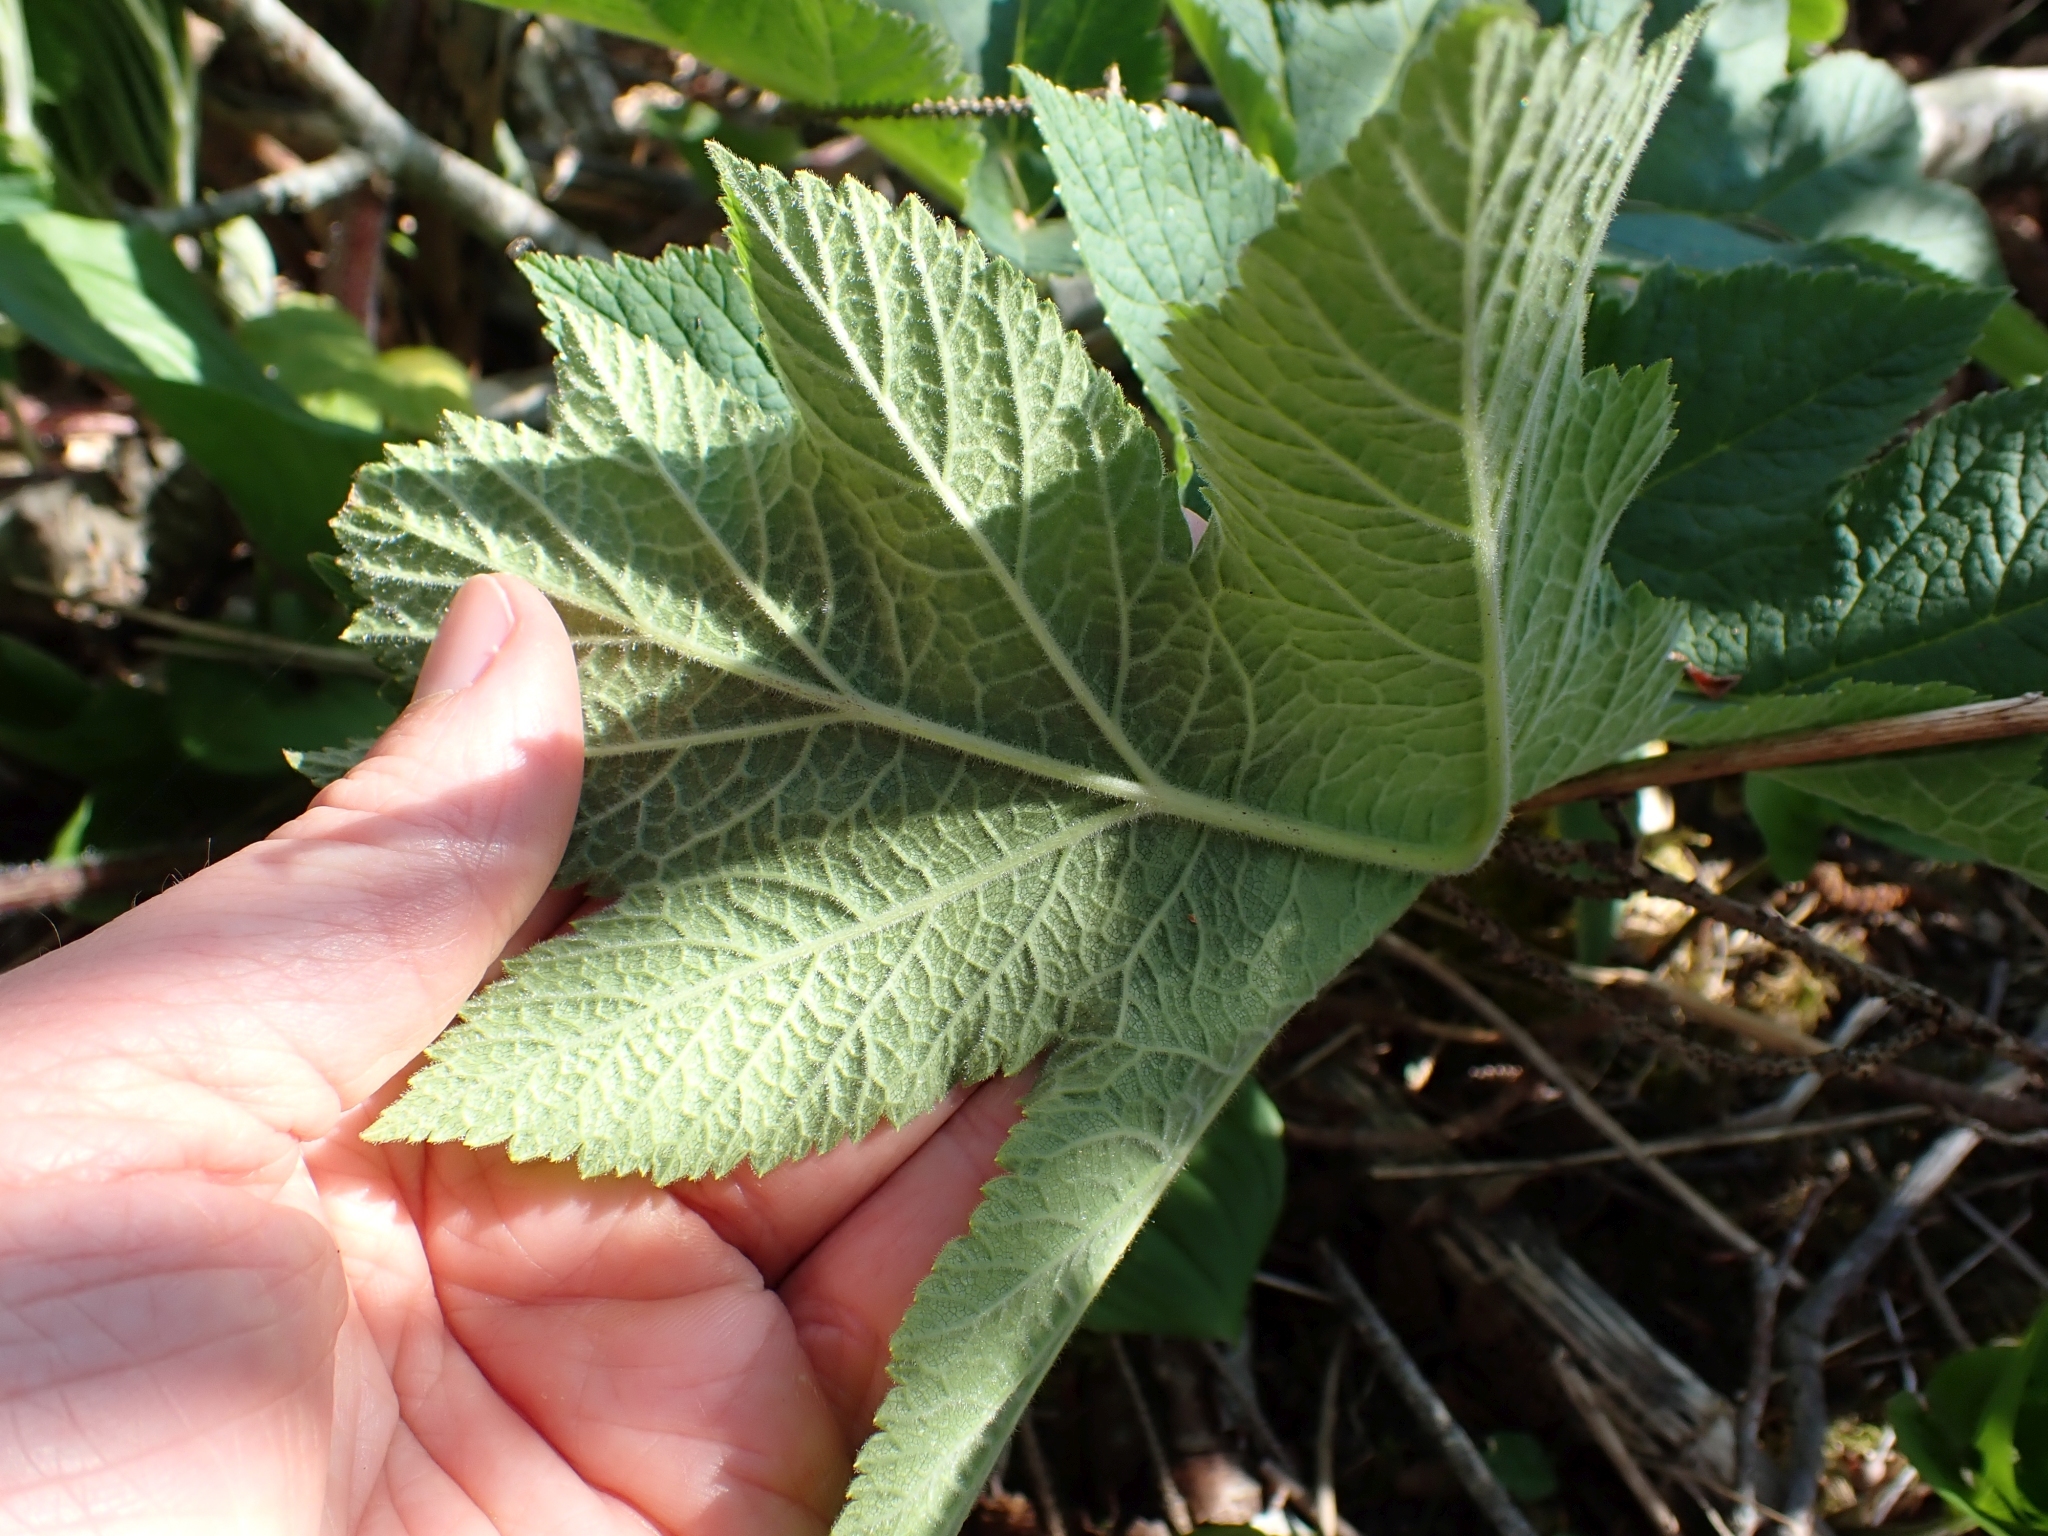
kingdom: Plantae
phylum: Tracheophyta
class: Magnoliopsida
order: Apiales
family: Apiaceae
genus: Heracleum
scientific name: Heracleum maximum
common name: American cow parsnip
